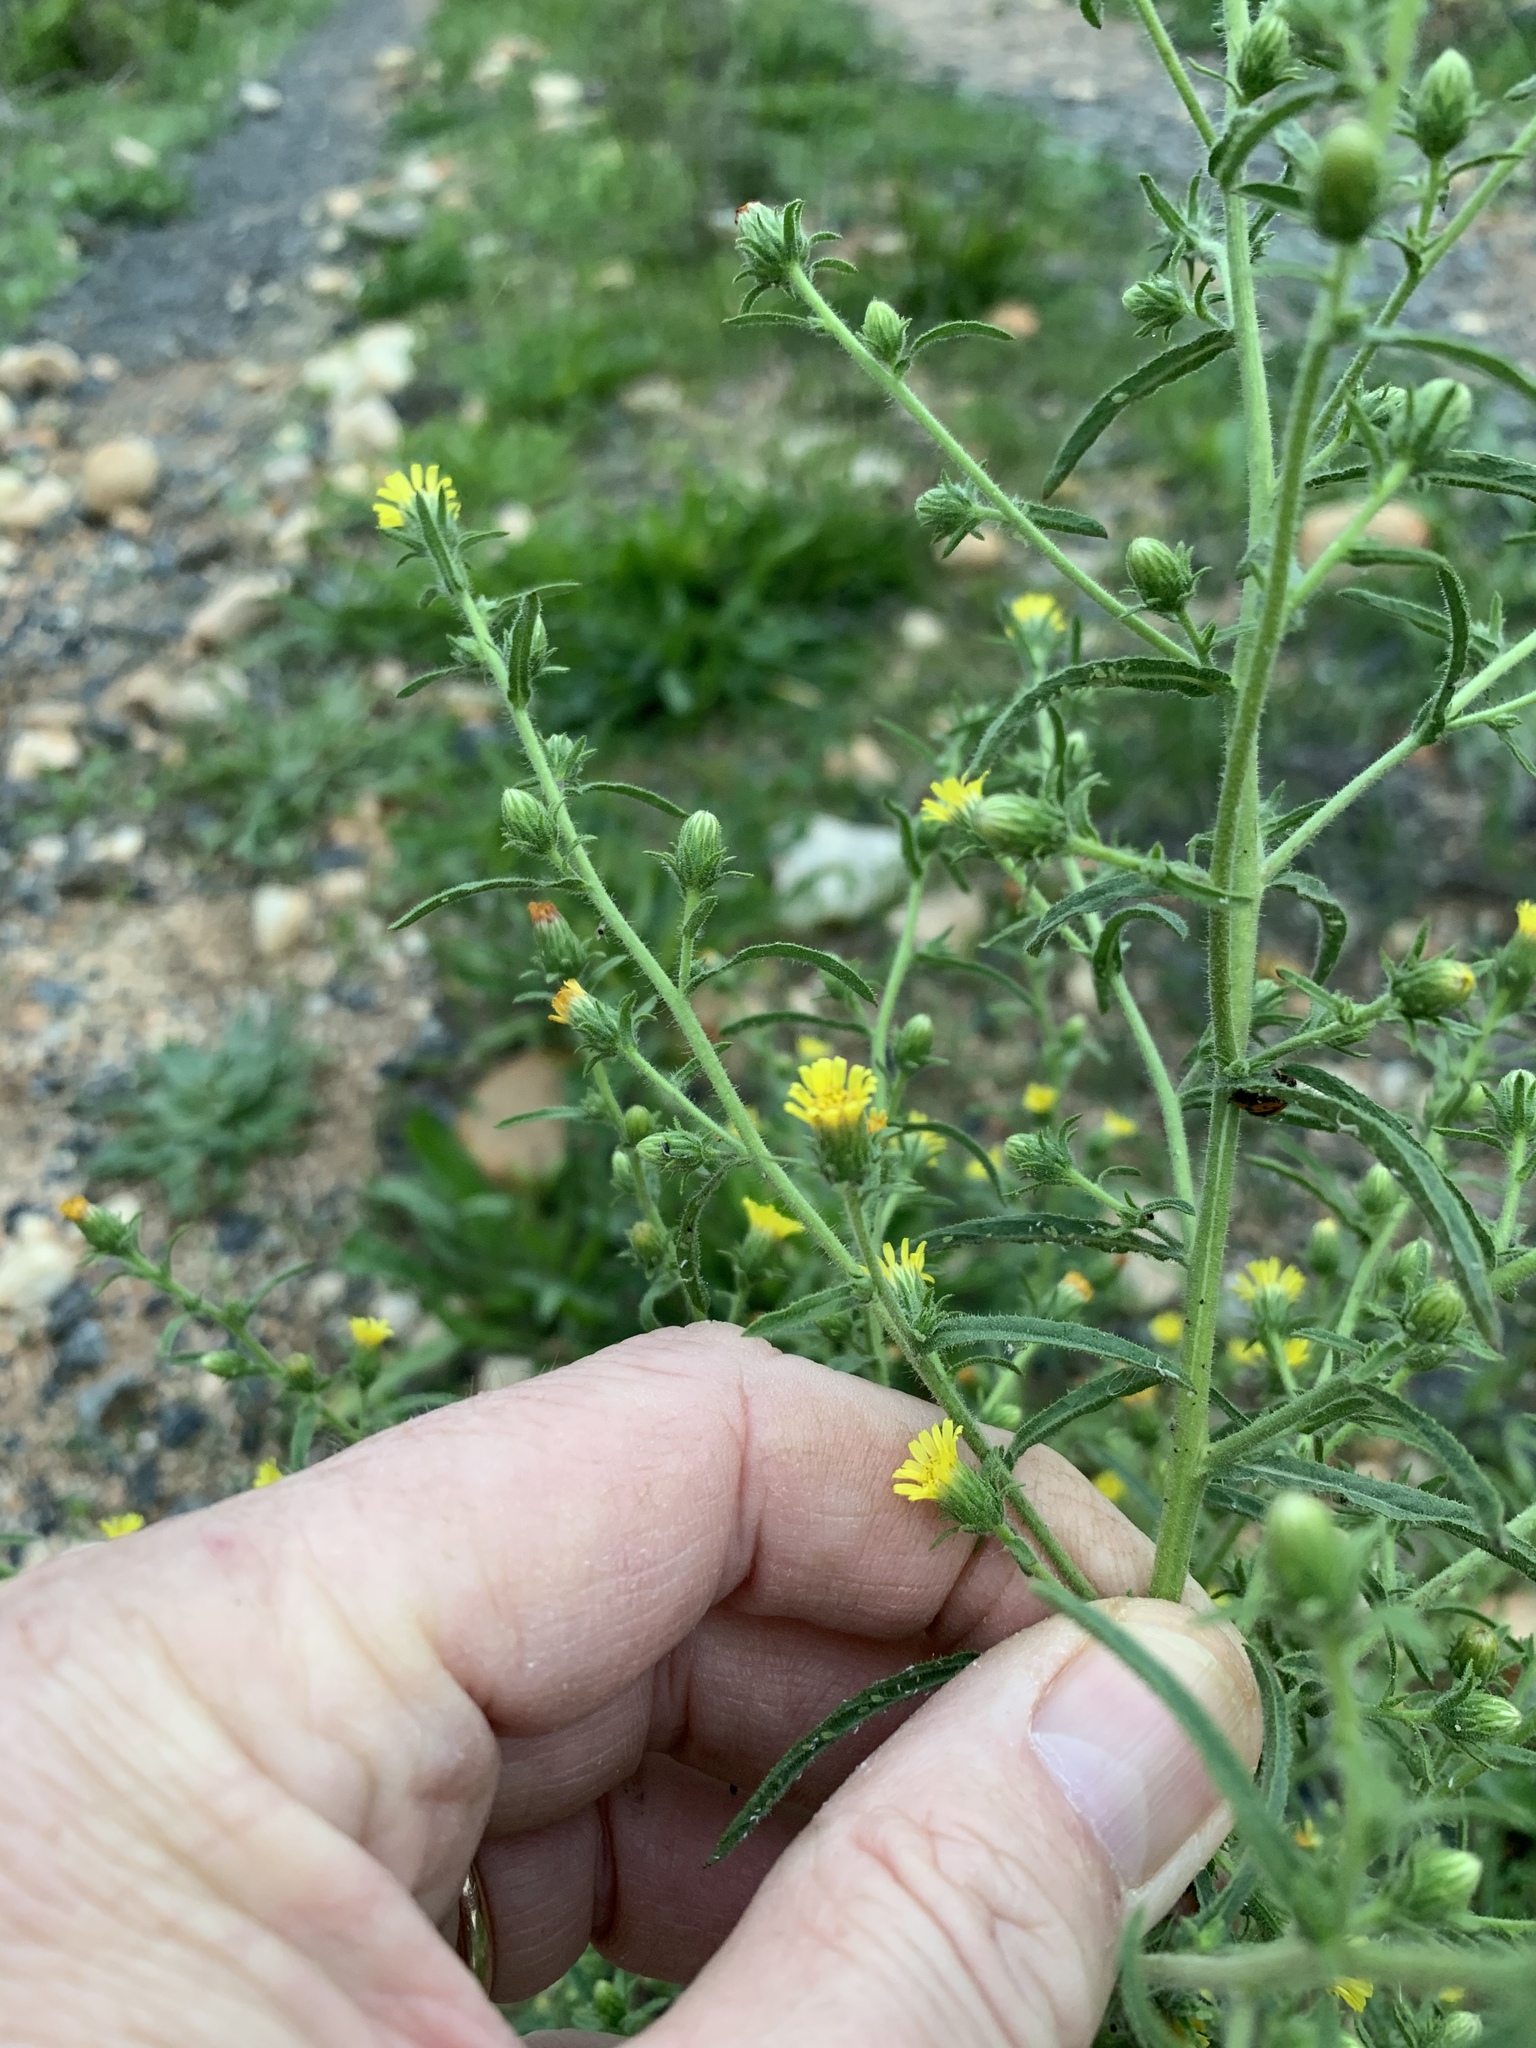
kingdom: Plantae
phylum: Tracheophyta
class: Magnoliopsida
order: Asterales
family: Asteraceae
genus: Dittrichia
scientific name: Dittrichia graveolens
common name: Stinking fleabane
